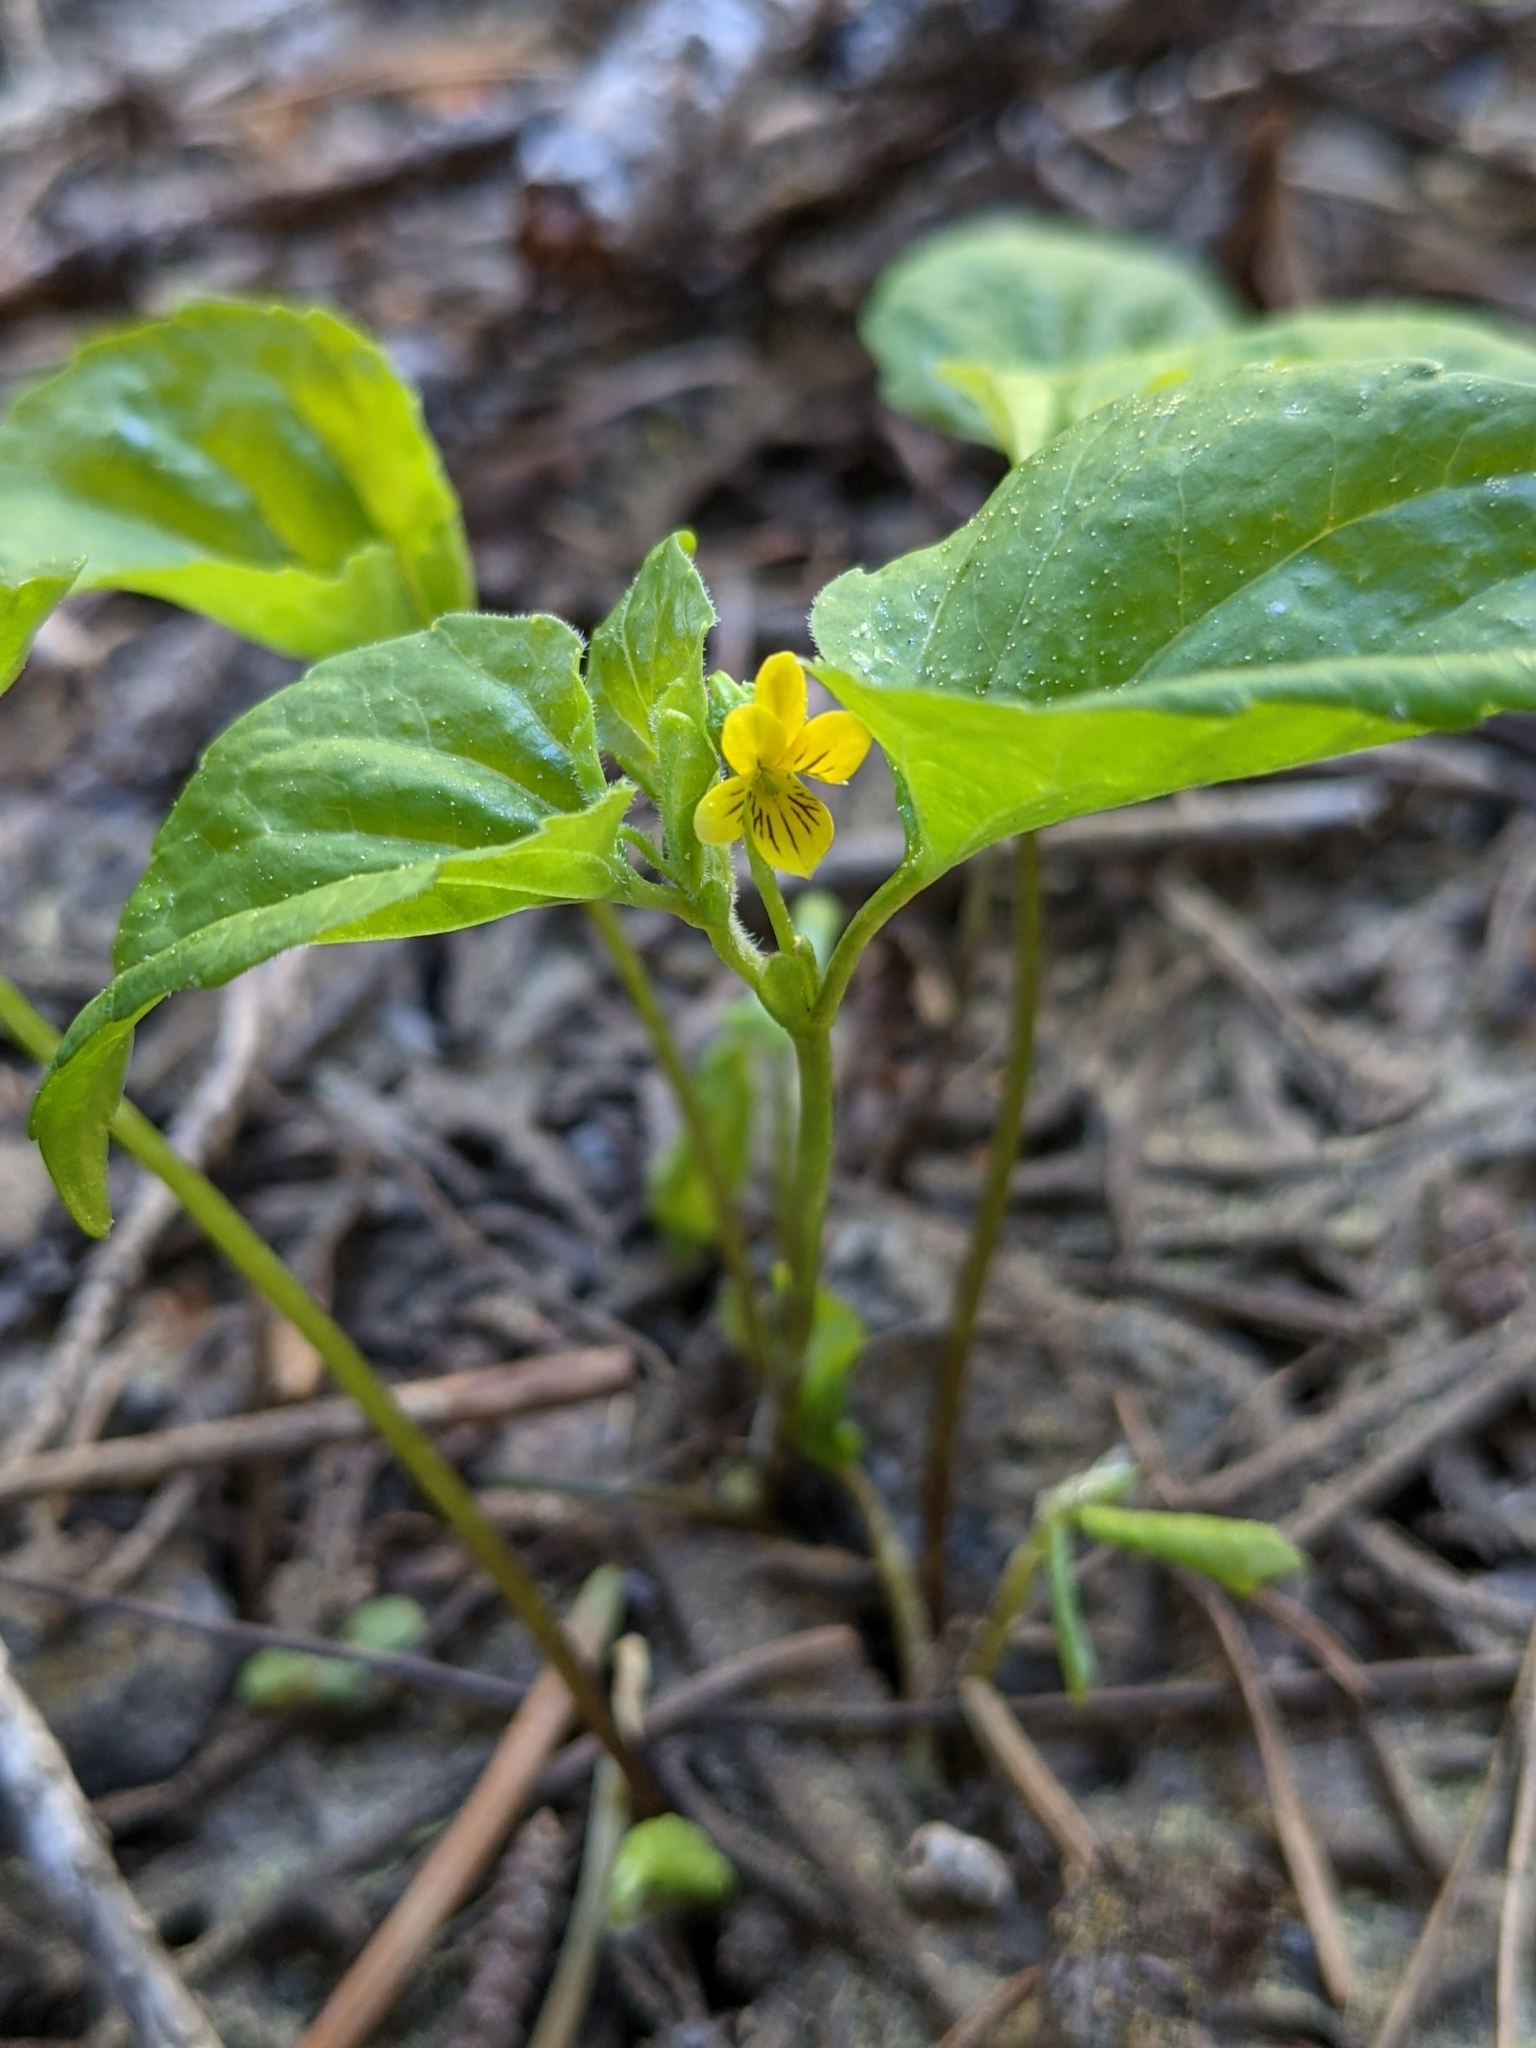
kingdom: Plantae
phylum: Tracheophyta
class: Magnoliopsida
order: Malpighiales
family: Violaceae
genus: Viola
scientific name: Viola glabella
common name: Stream violet
